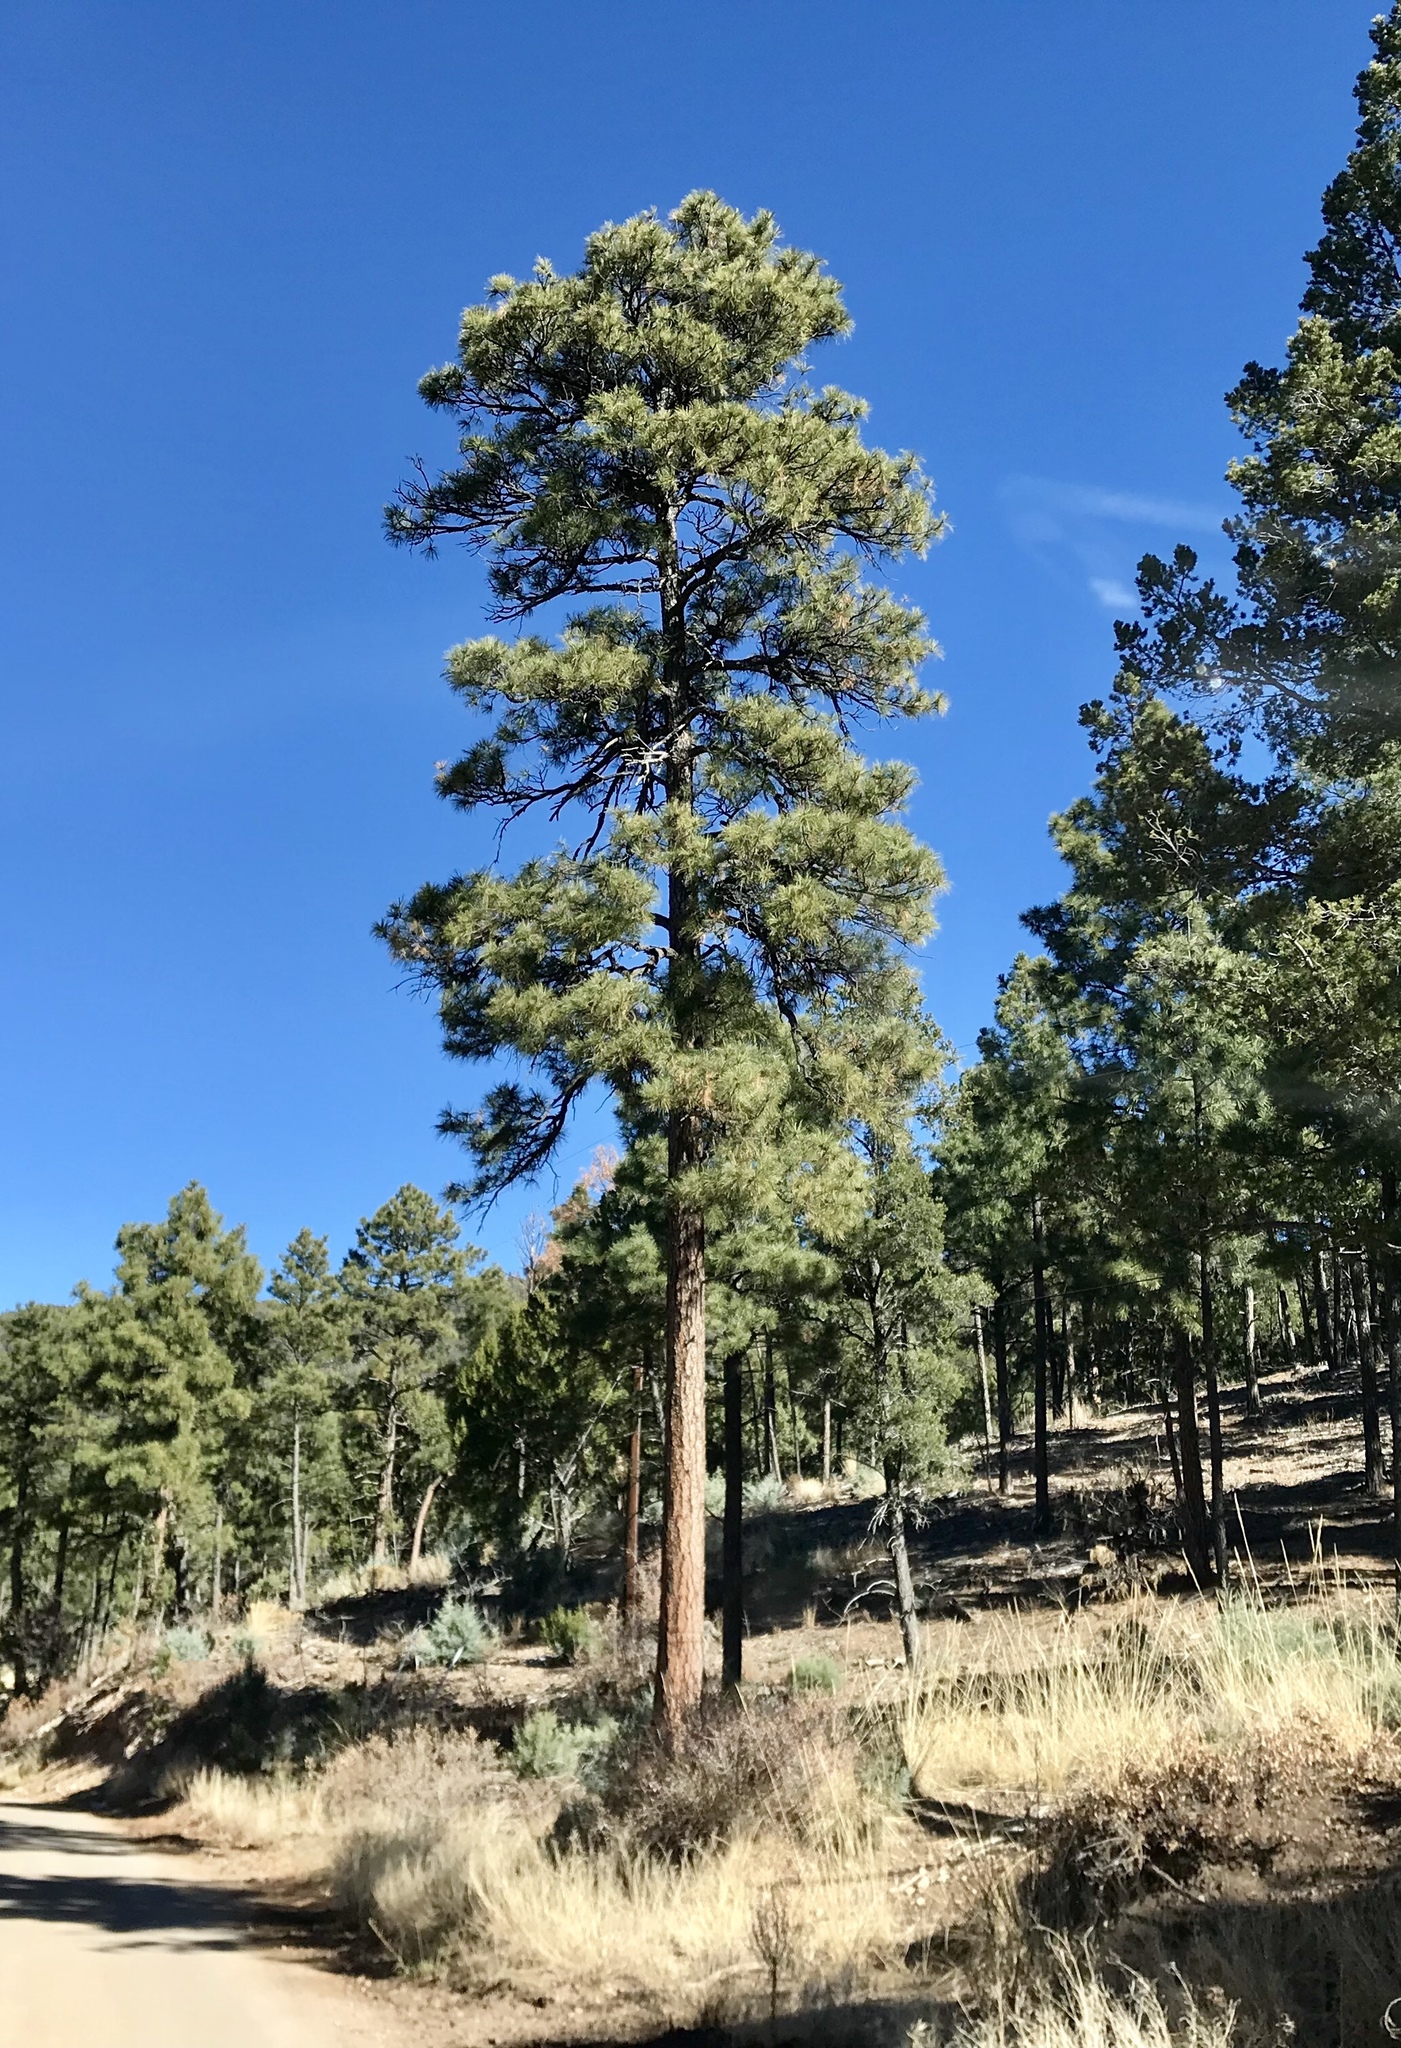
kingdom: Plantae
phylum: Tracheophyta
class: Pinopsida
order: Pinales
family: Pinaceae
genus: Pinus
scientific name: Pinus ponderosa
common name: Western yellow-pine
